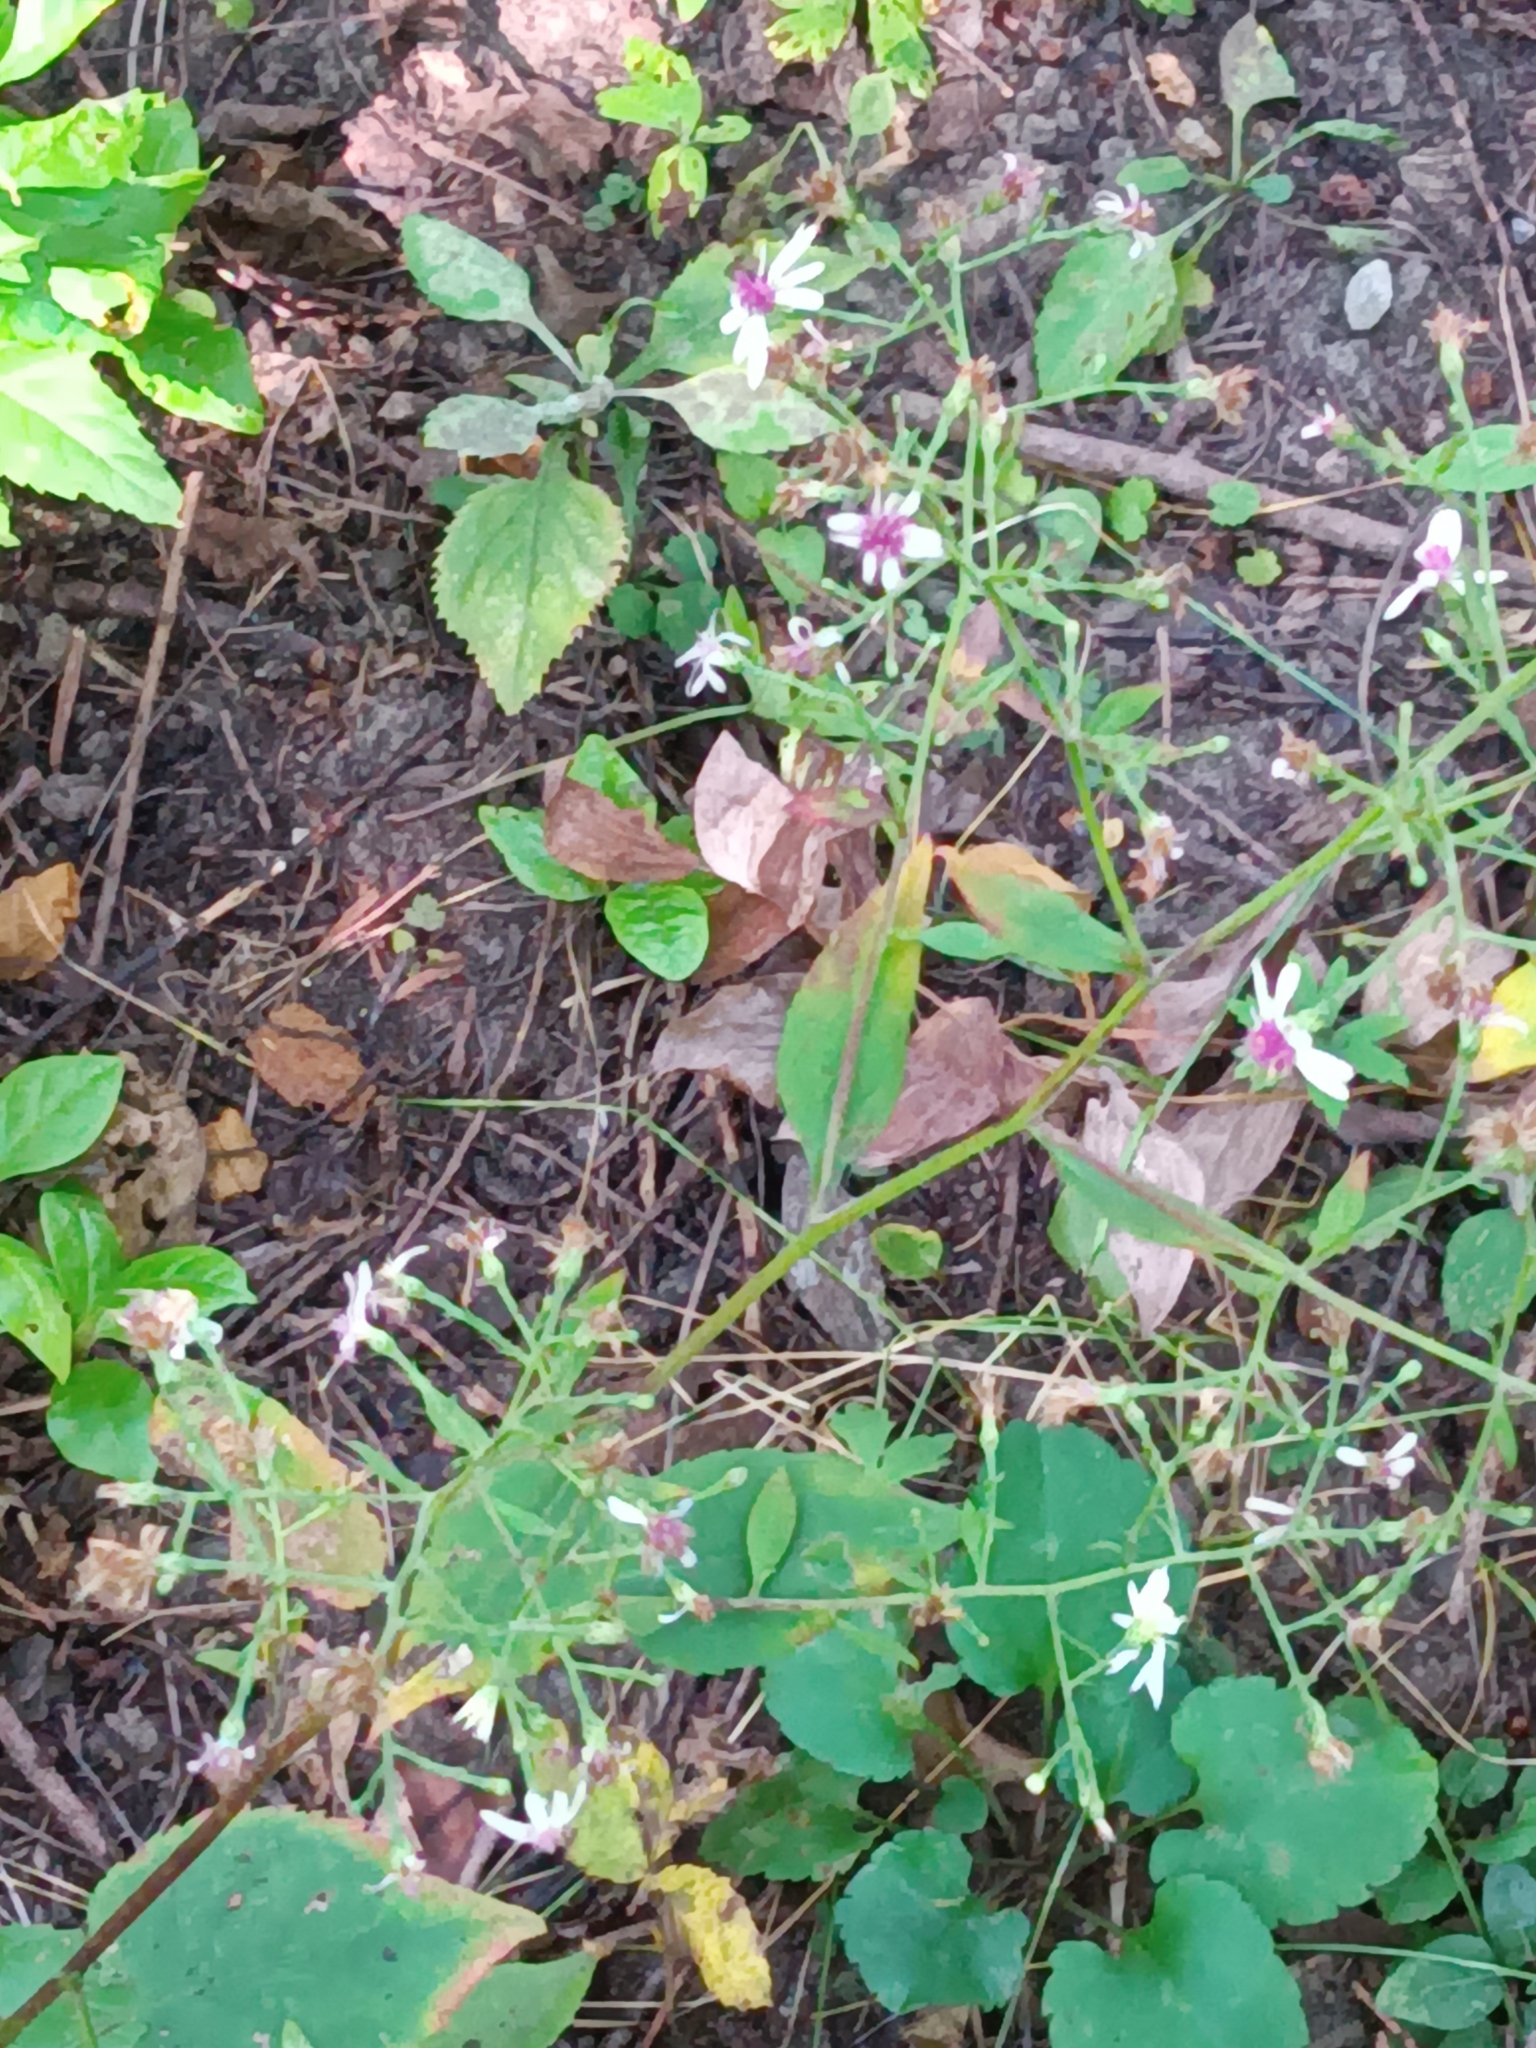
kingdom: Plantae
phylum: Tracheophyta
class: Magnoliopsida
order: Asterales
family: Asteraceae
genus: Symphyotrichum
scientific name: Symphyotrichum cordifolium
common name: Beeweed
